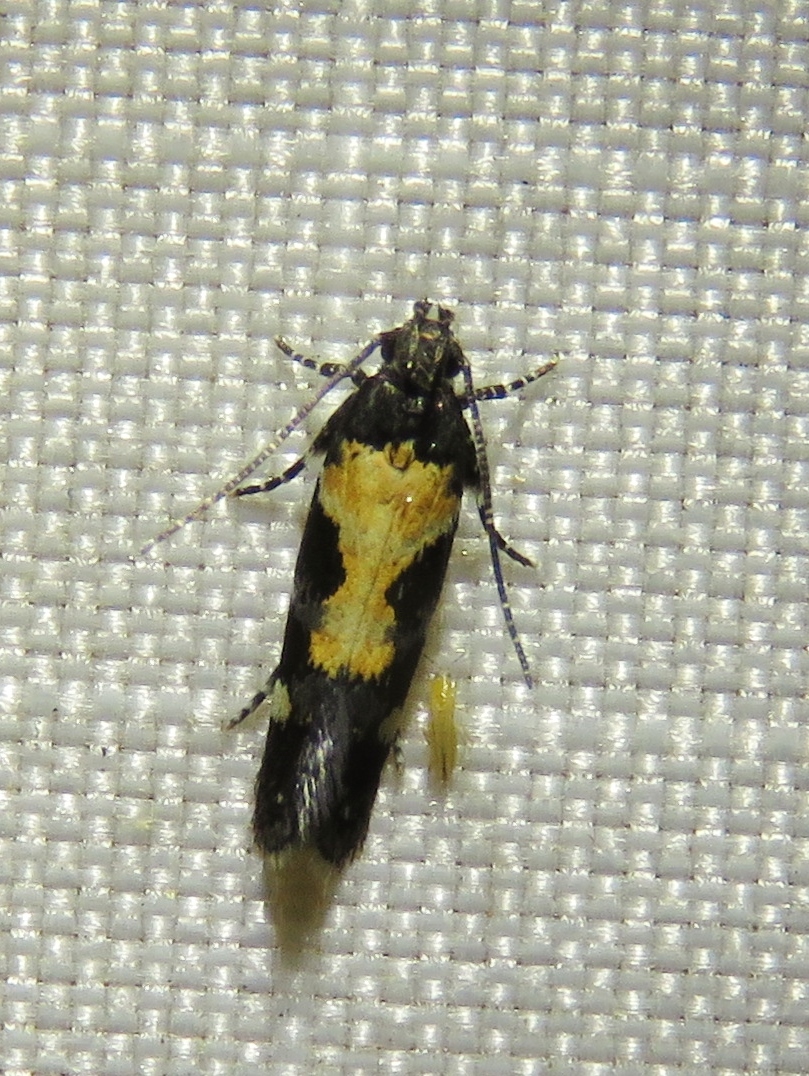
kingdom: Animalia
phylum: Arthropoda
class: Insecta
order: Lepidoptera
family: Gelechiidae
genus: Stegasta
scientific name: Stegasta bosqueella
